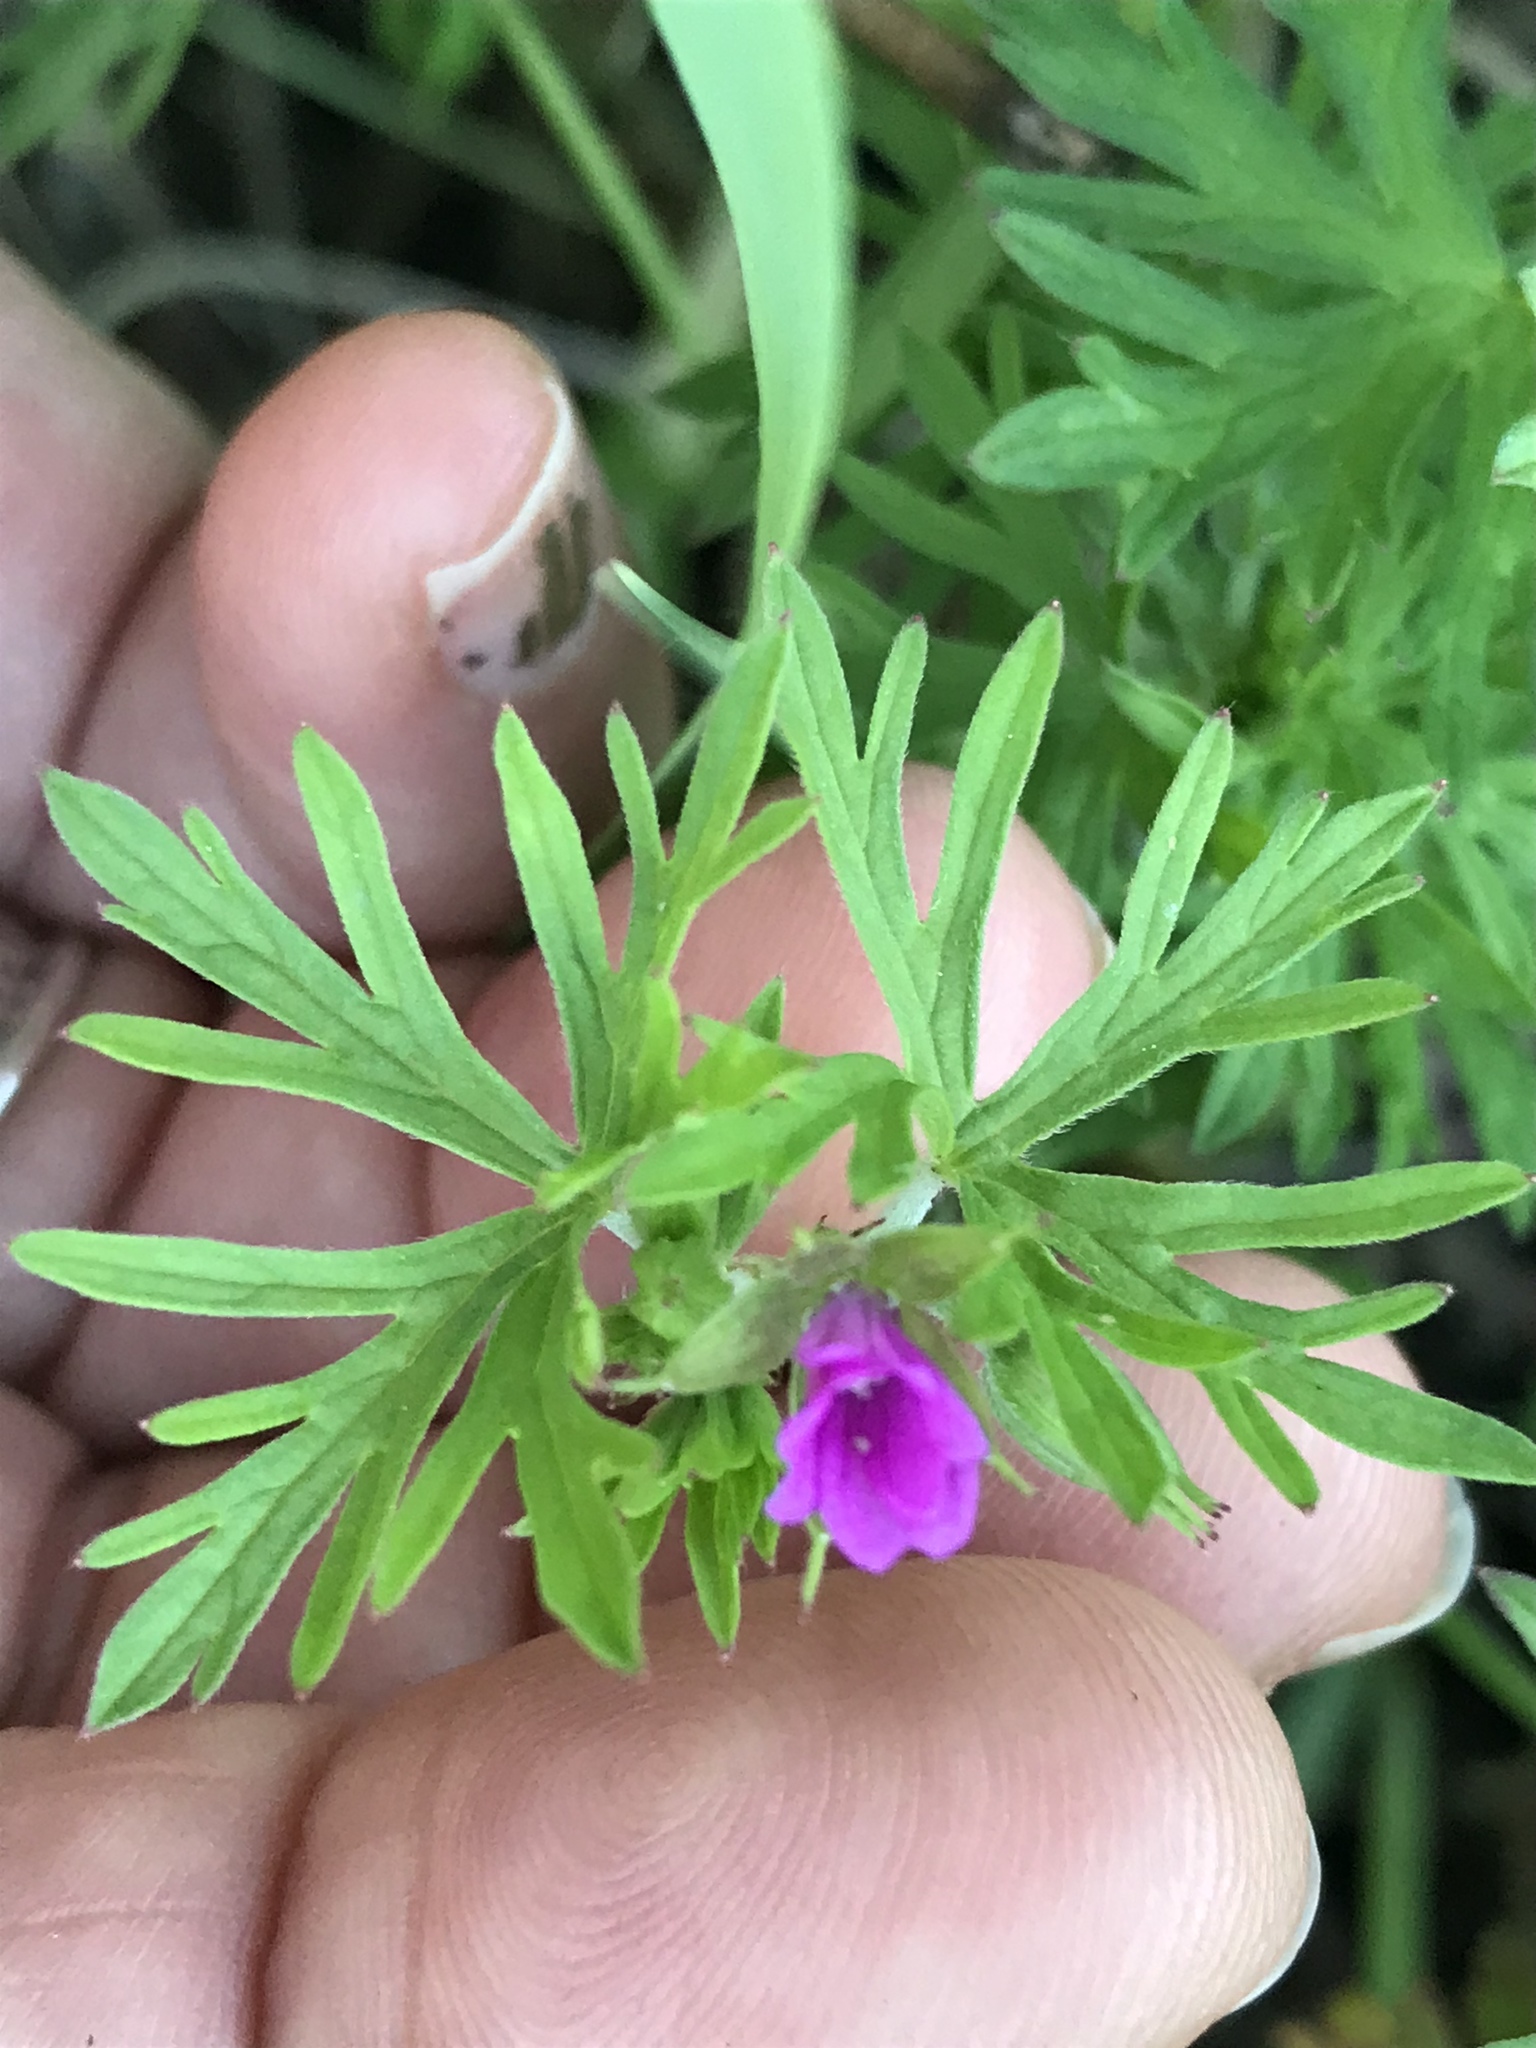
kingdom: Plantae
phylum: Tracheophyta
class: Magnoliopsida
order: Geraniales
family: Geraniaceae
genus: Geranium
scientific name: Geranium dissectum
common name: Cut-leaved crane's-bill
